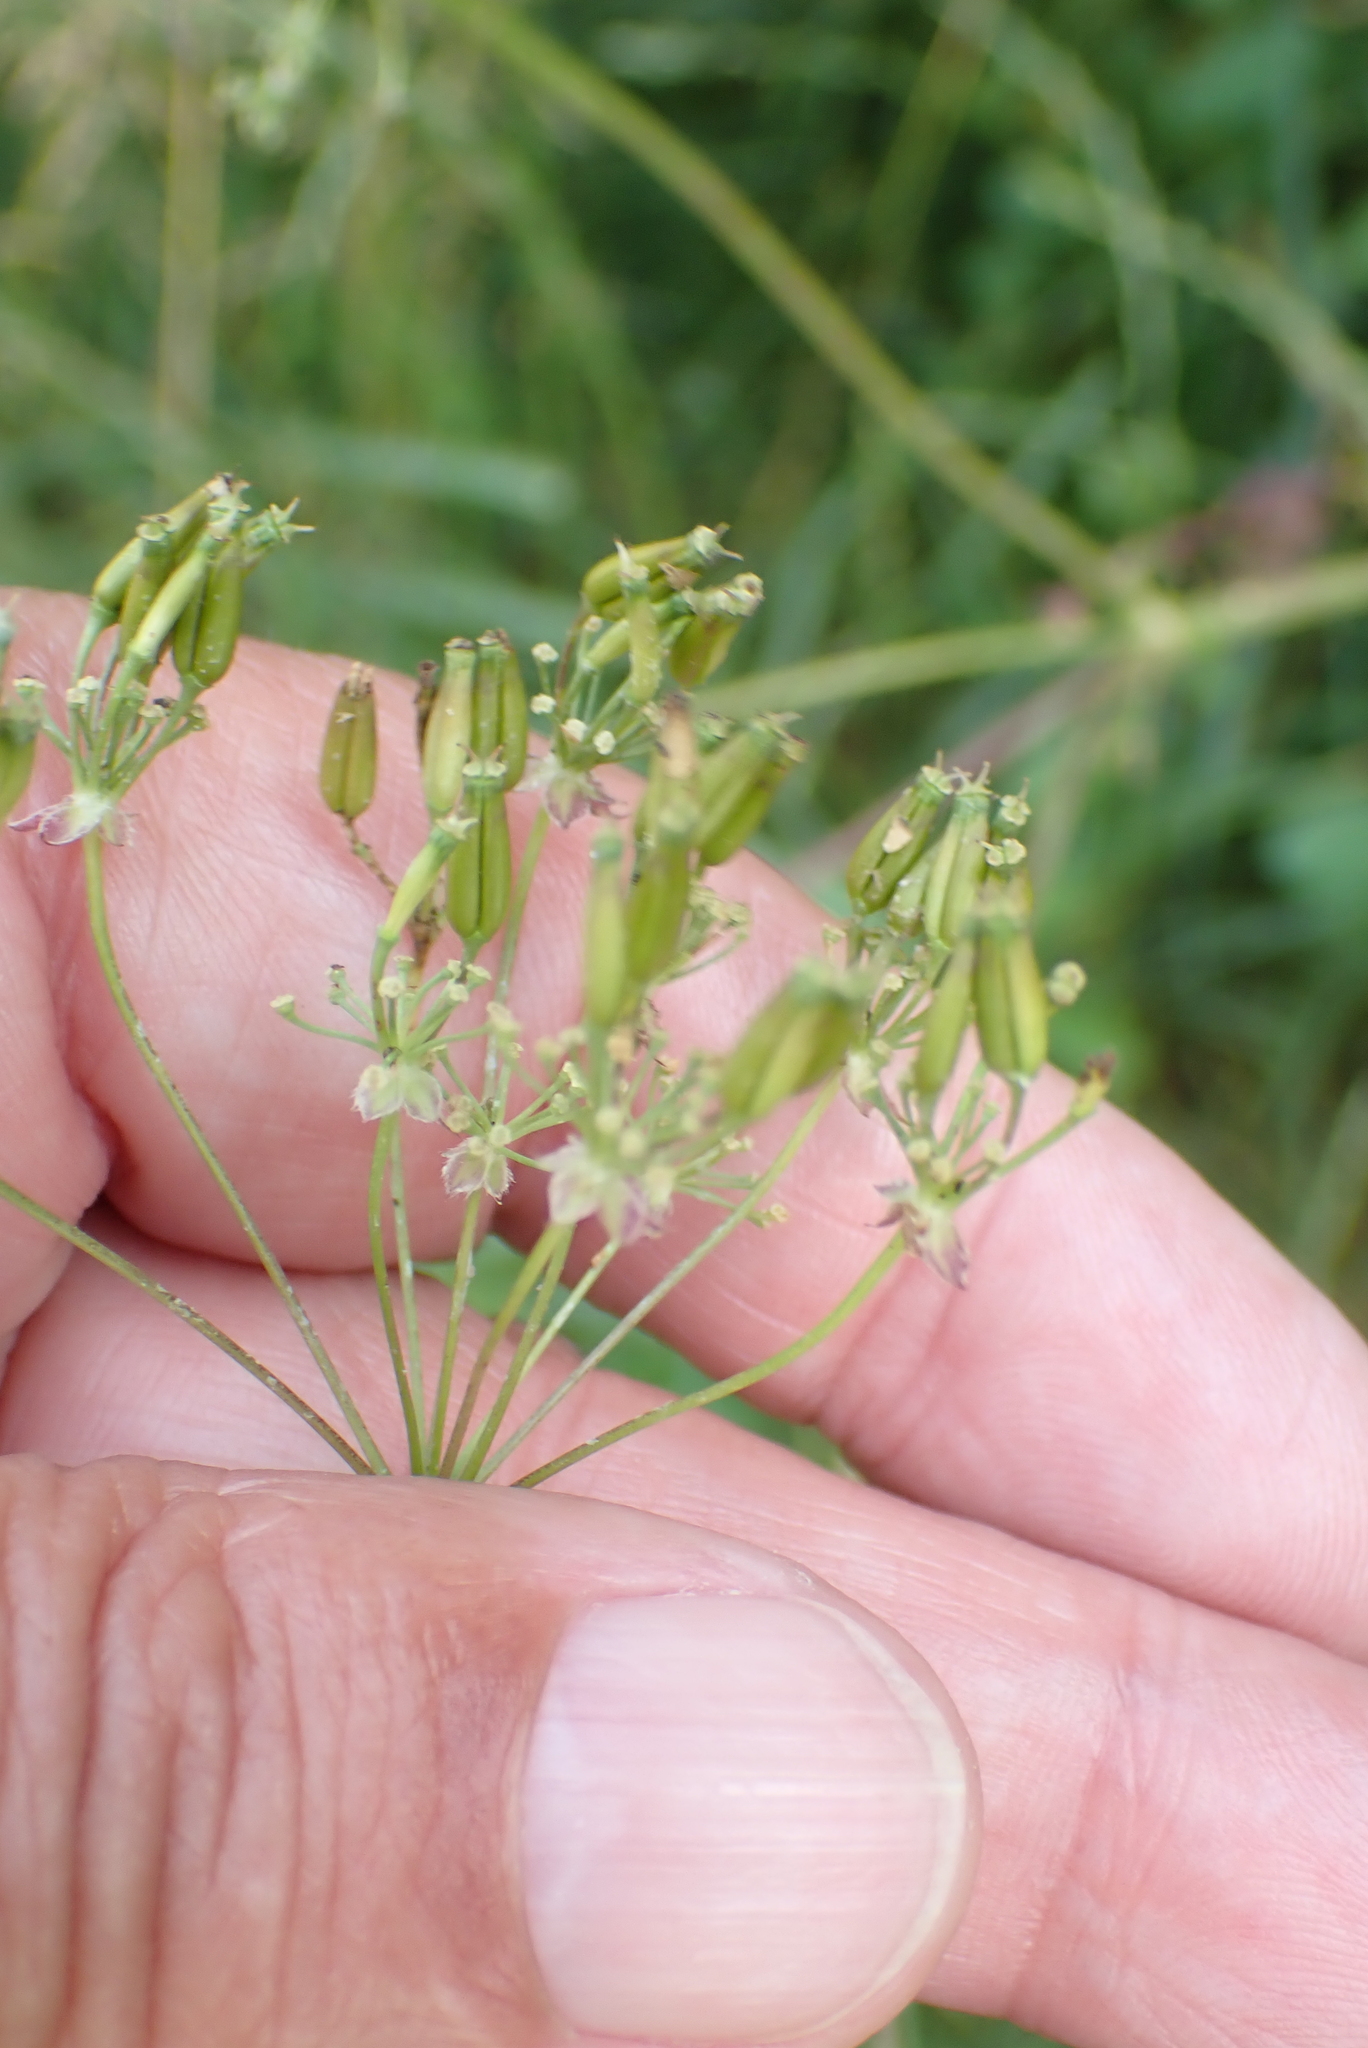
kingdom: Plantae
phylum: Tracheophyta
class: Magnoliopsida
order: Apiales
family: Apiaceae
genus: Anthriscus
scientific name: Anthriscus sylvestris
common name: Cow parsley
